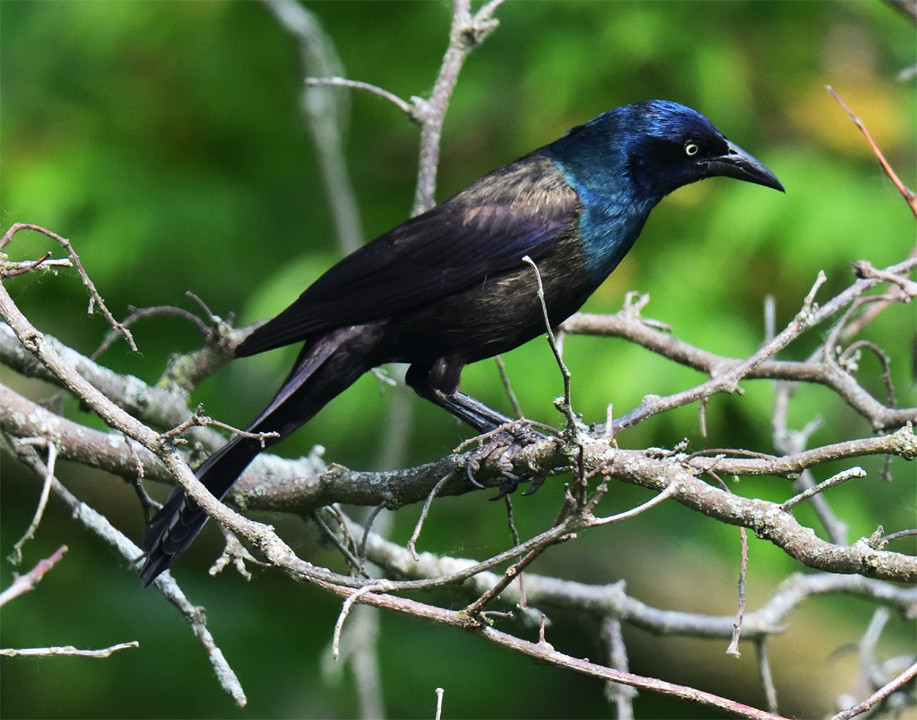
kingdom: Animalia
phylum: Chordata
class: Aves
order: Passeriformes
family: Icteridae
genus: Quiscalus
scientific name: Quiscalus quiscula
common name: Common grackle
